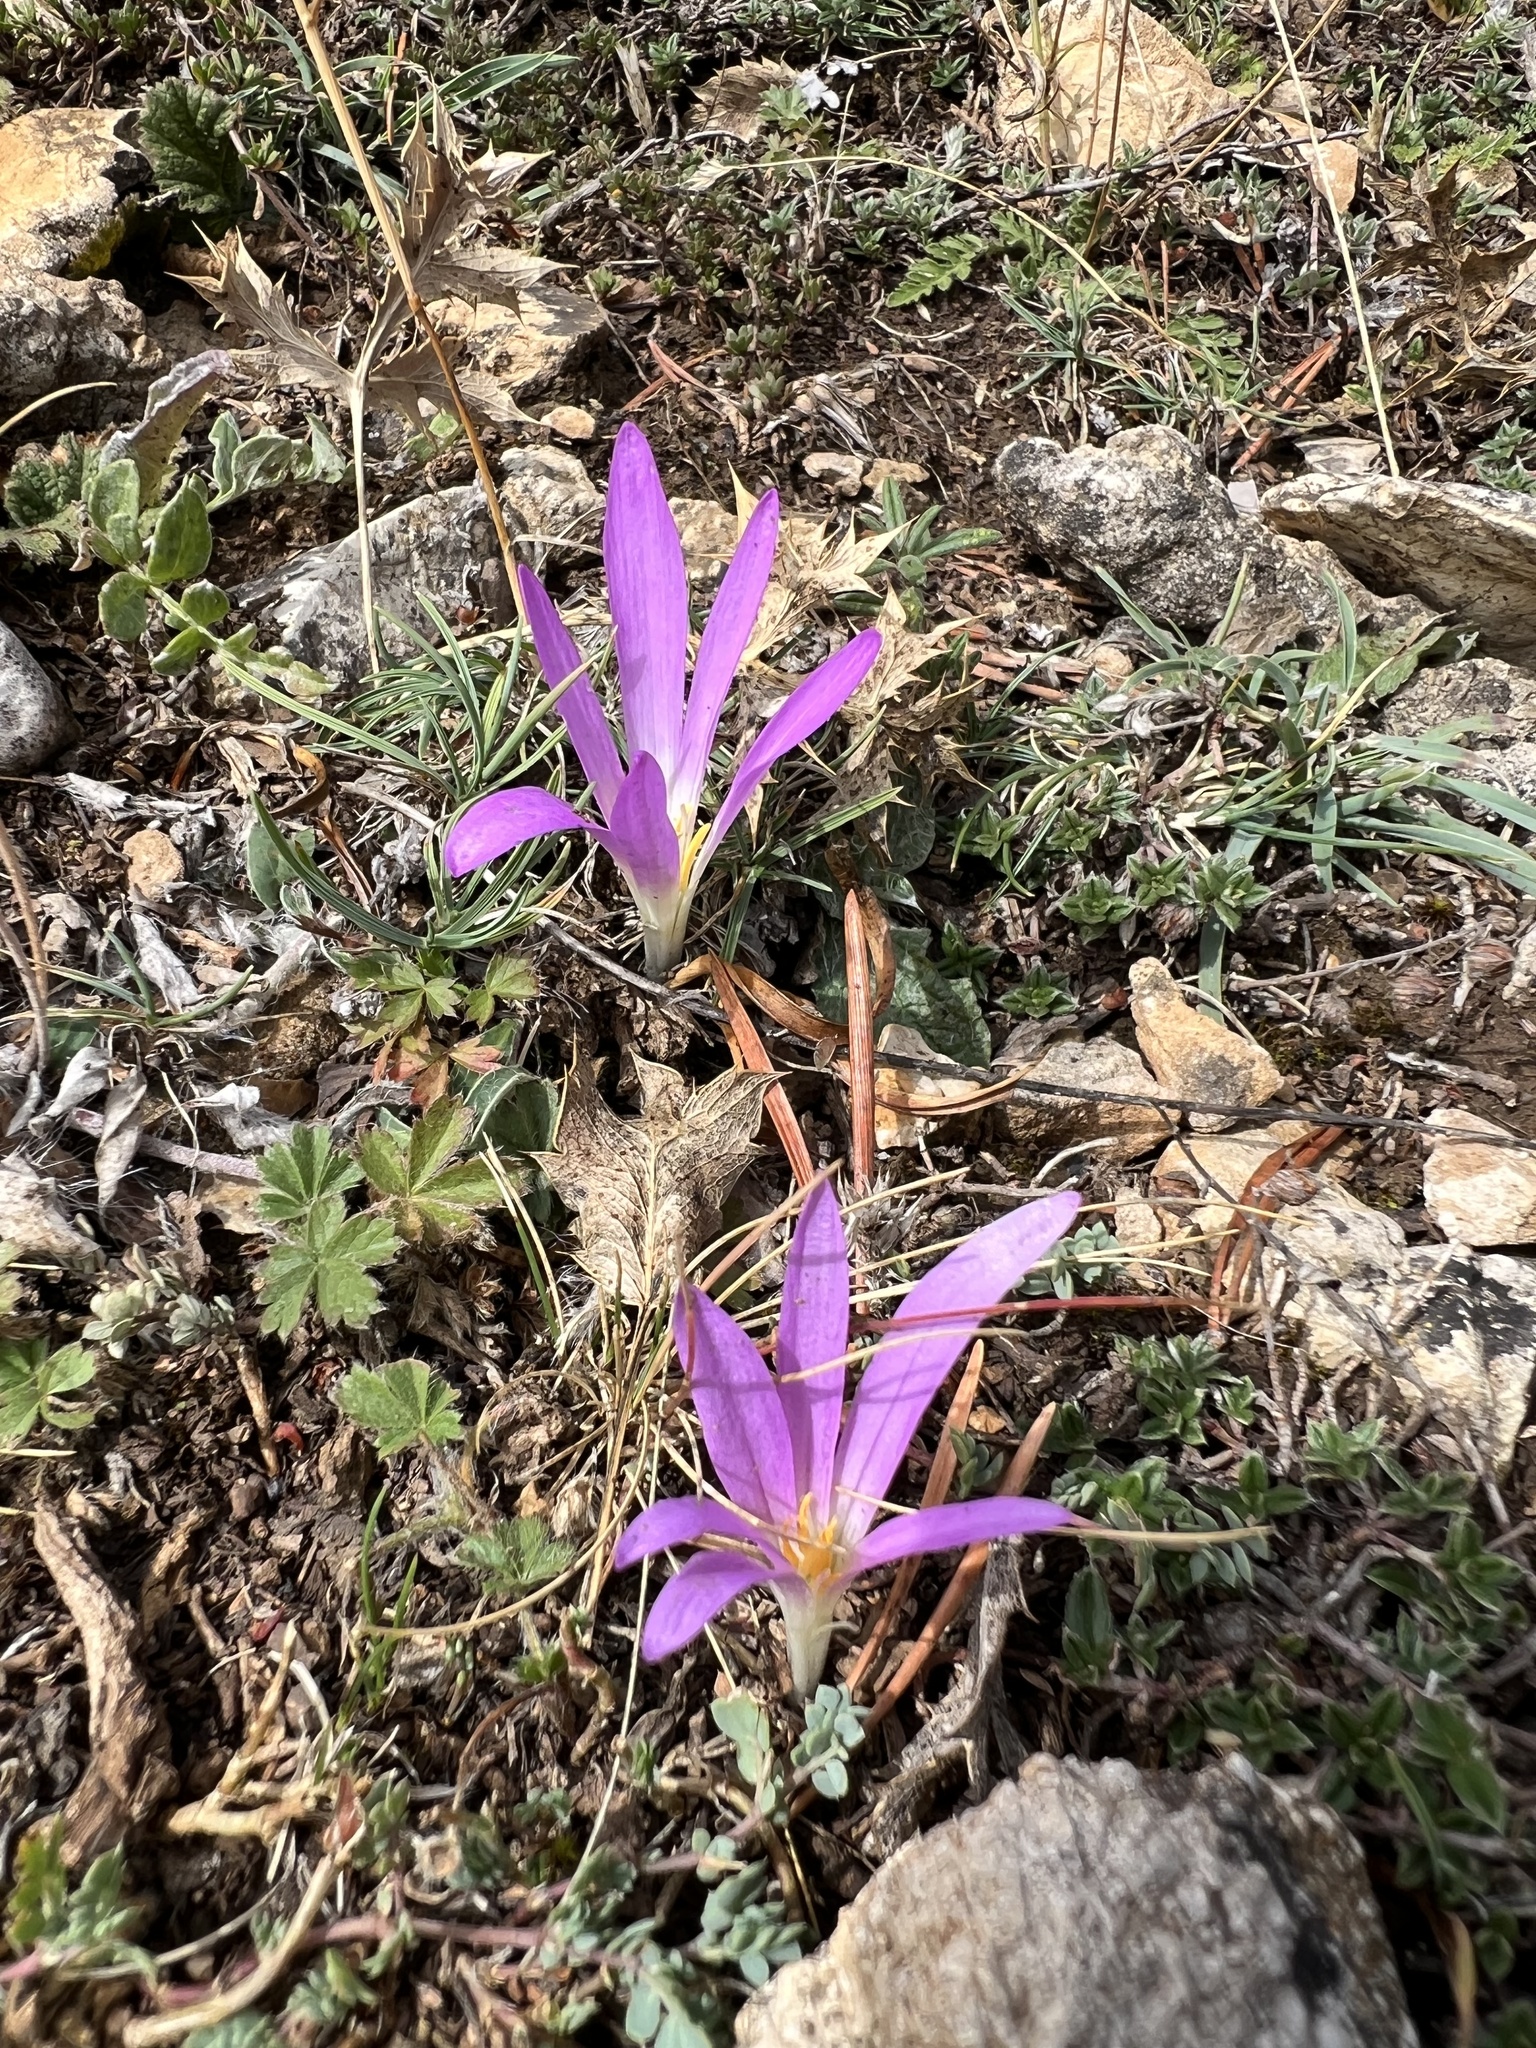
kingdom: Plantae
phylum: Tracheophyta
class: Liliopsida
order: Liliales
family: Colchicaceae
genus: Colchicum
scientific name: Colchicum montanum
